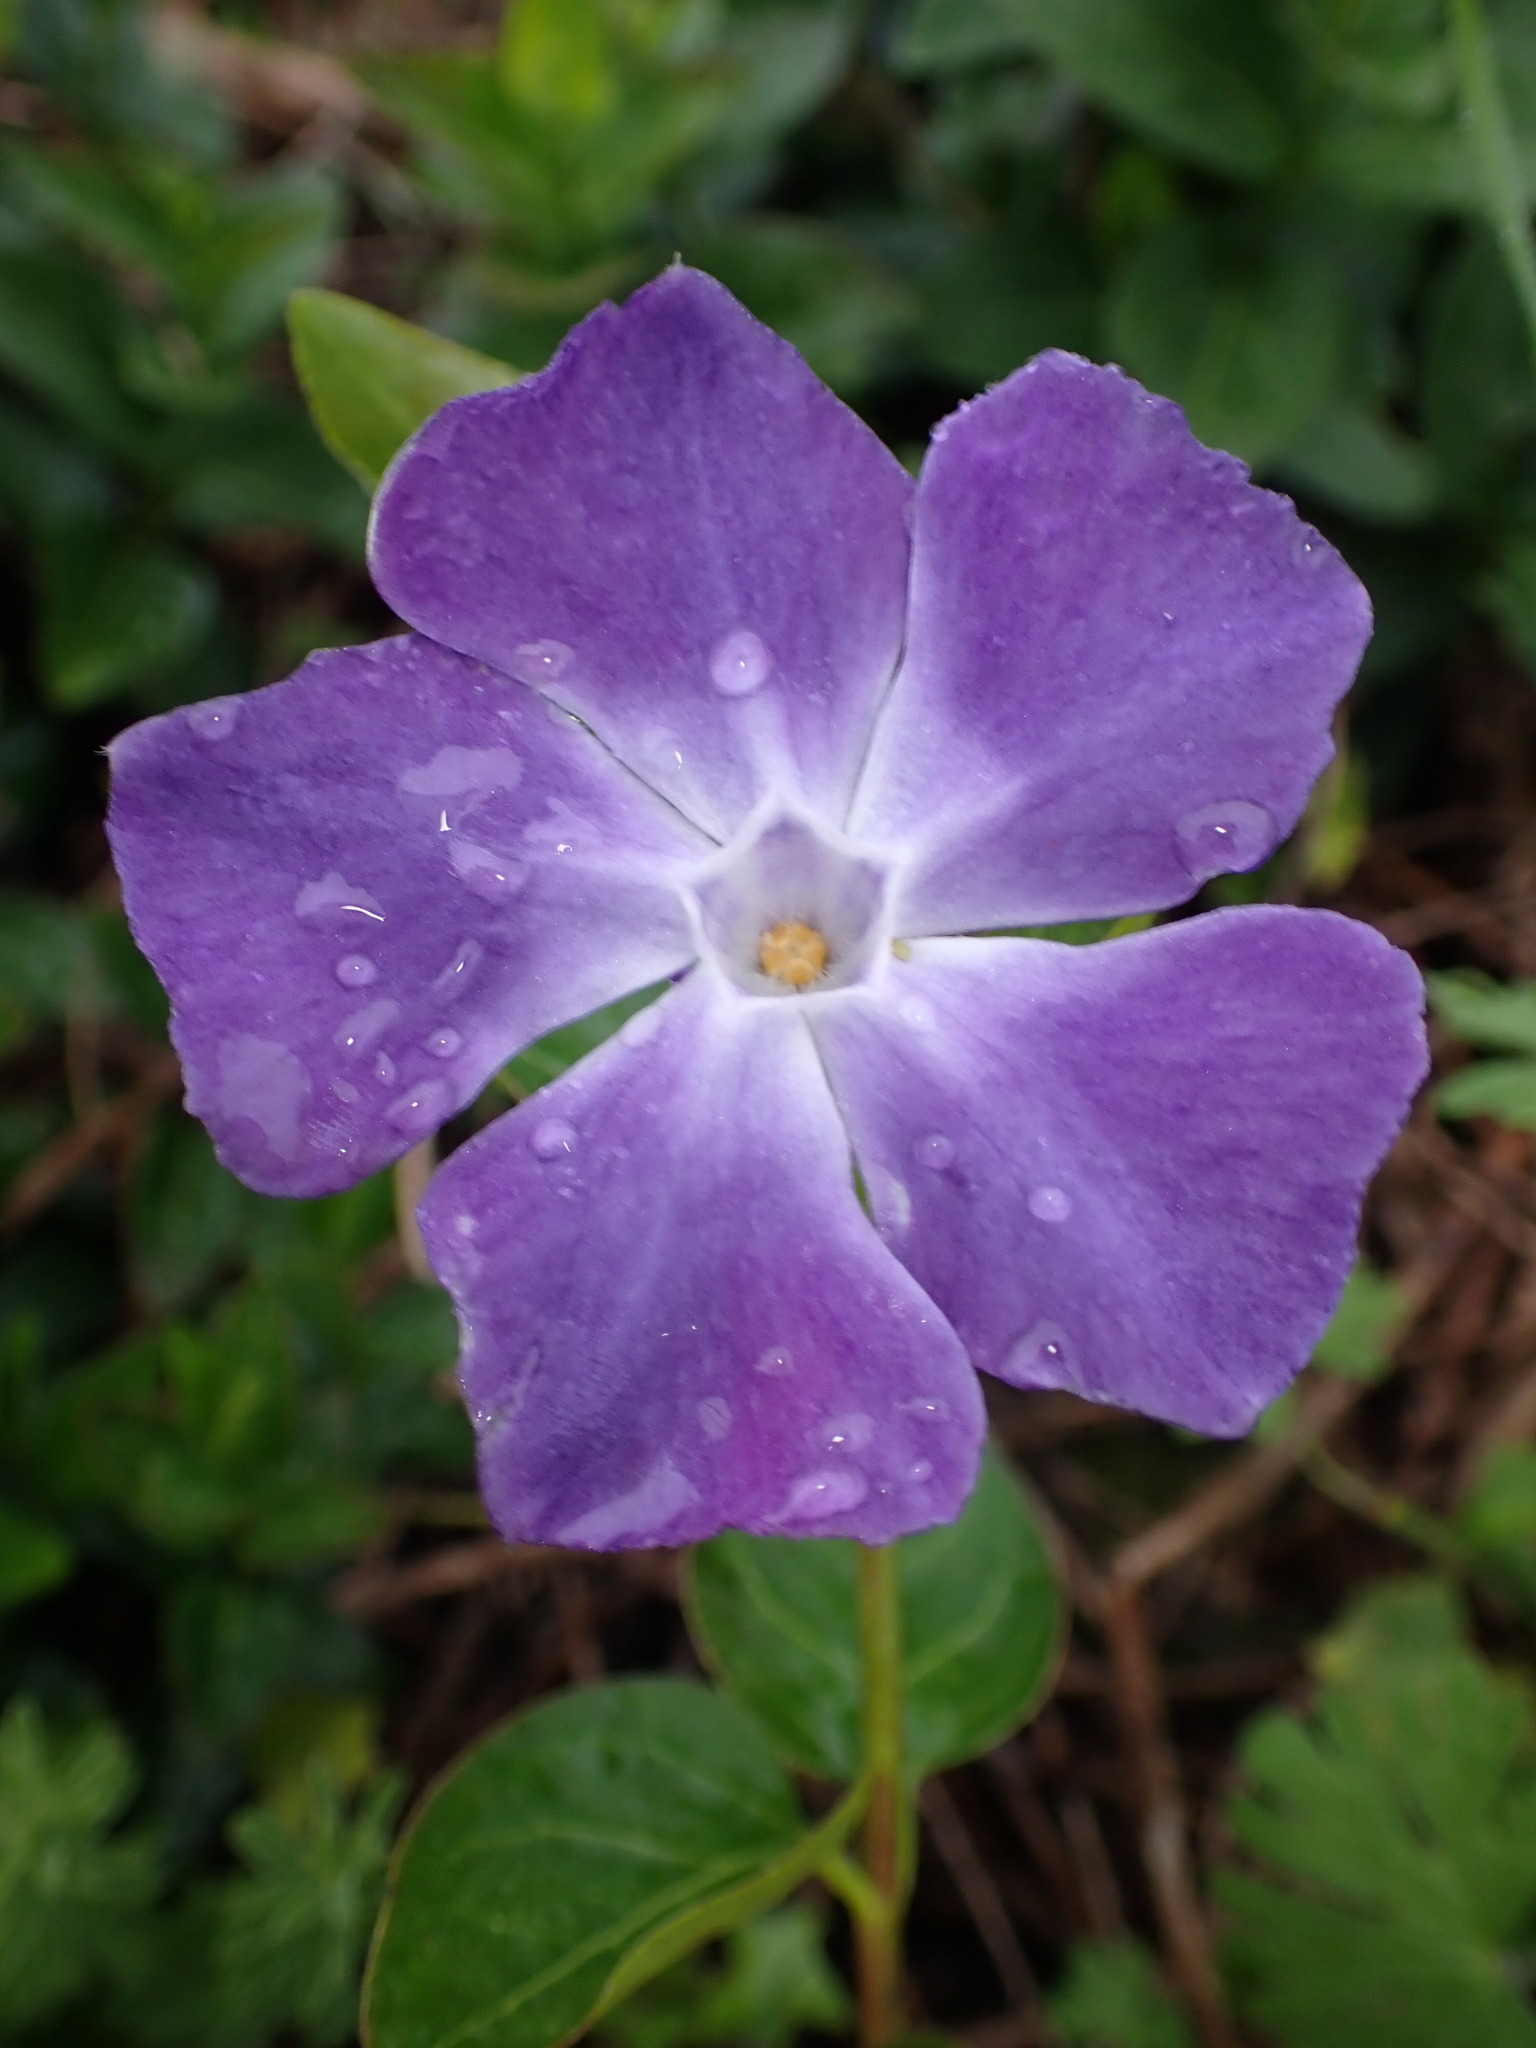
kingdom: Plantae
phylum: Tracheophyta
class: Magnoliopsida
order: Gentianales
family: Apocynaceae
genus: Vinca
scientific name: Vinca major
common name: Greater periwinkle
